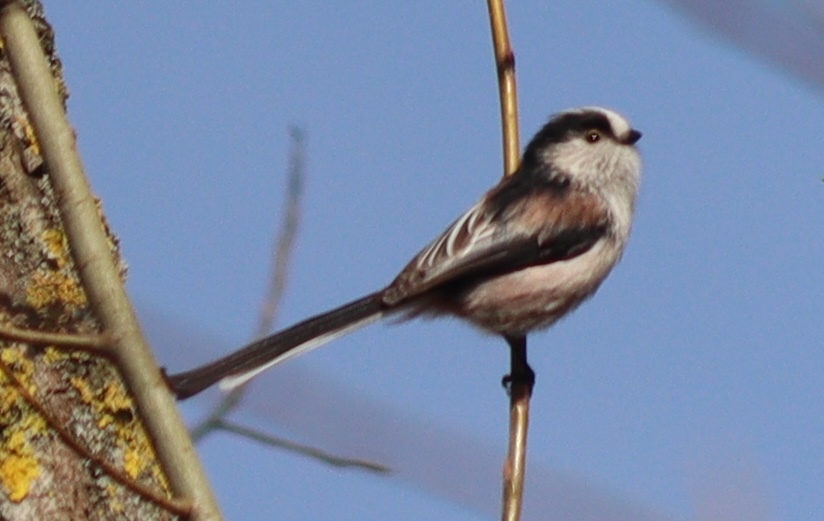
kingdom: Animalia
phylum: Chordata
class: Aves
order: Passeriformes
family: Aegithalidae
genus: Aegithalos
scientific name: Aegithalos caudatus
